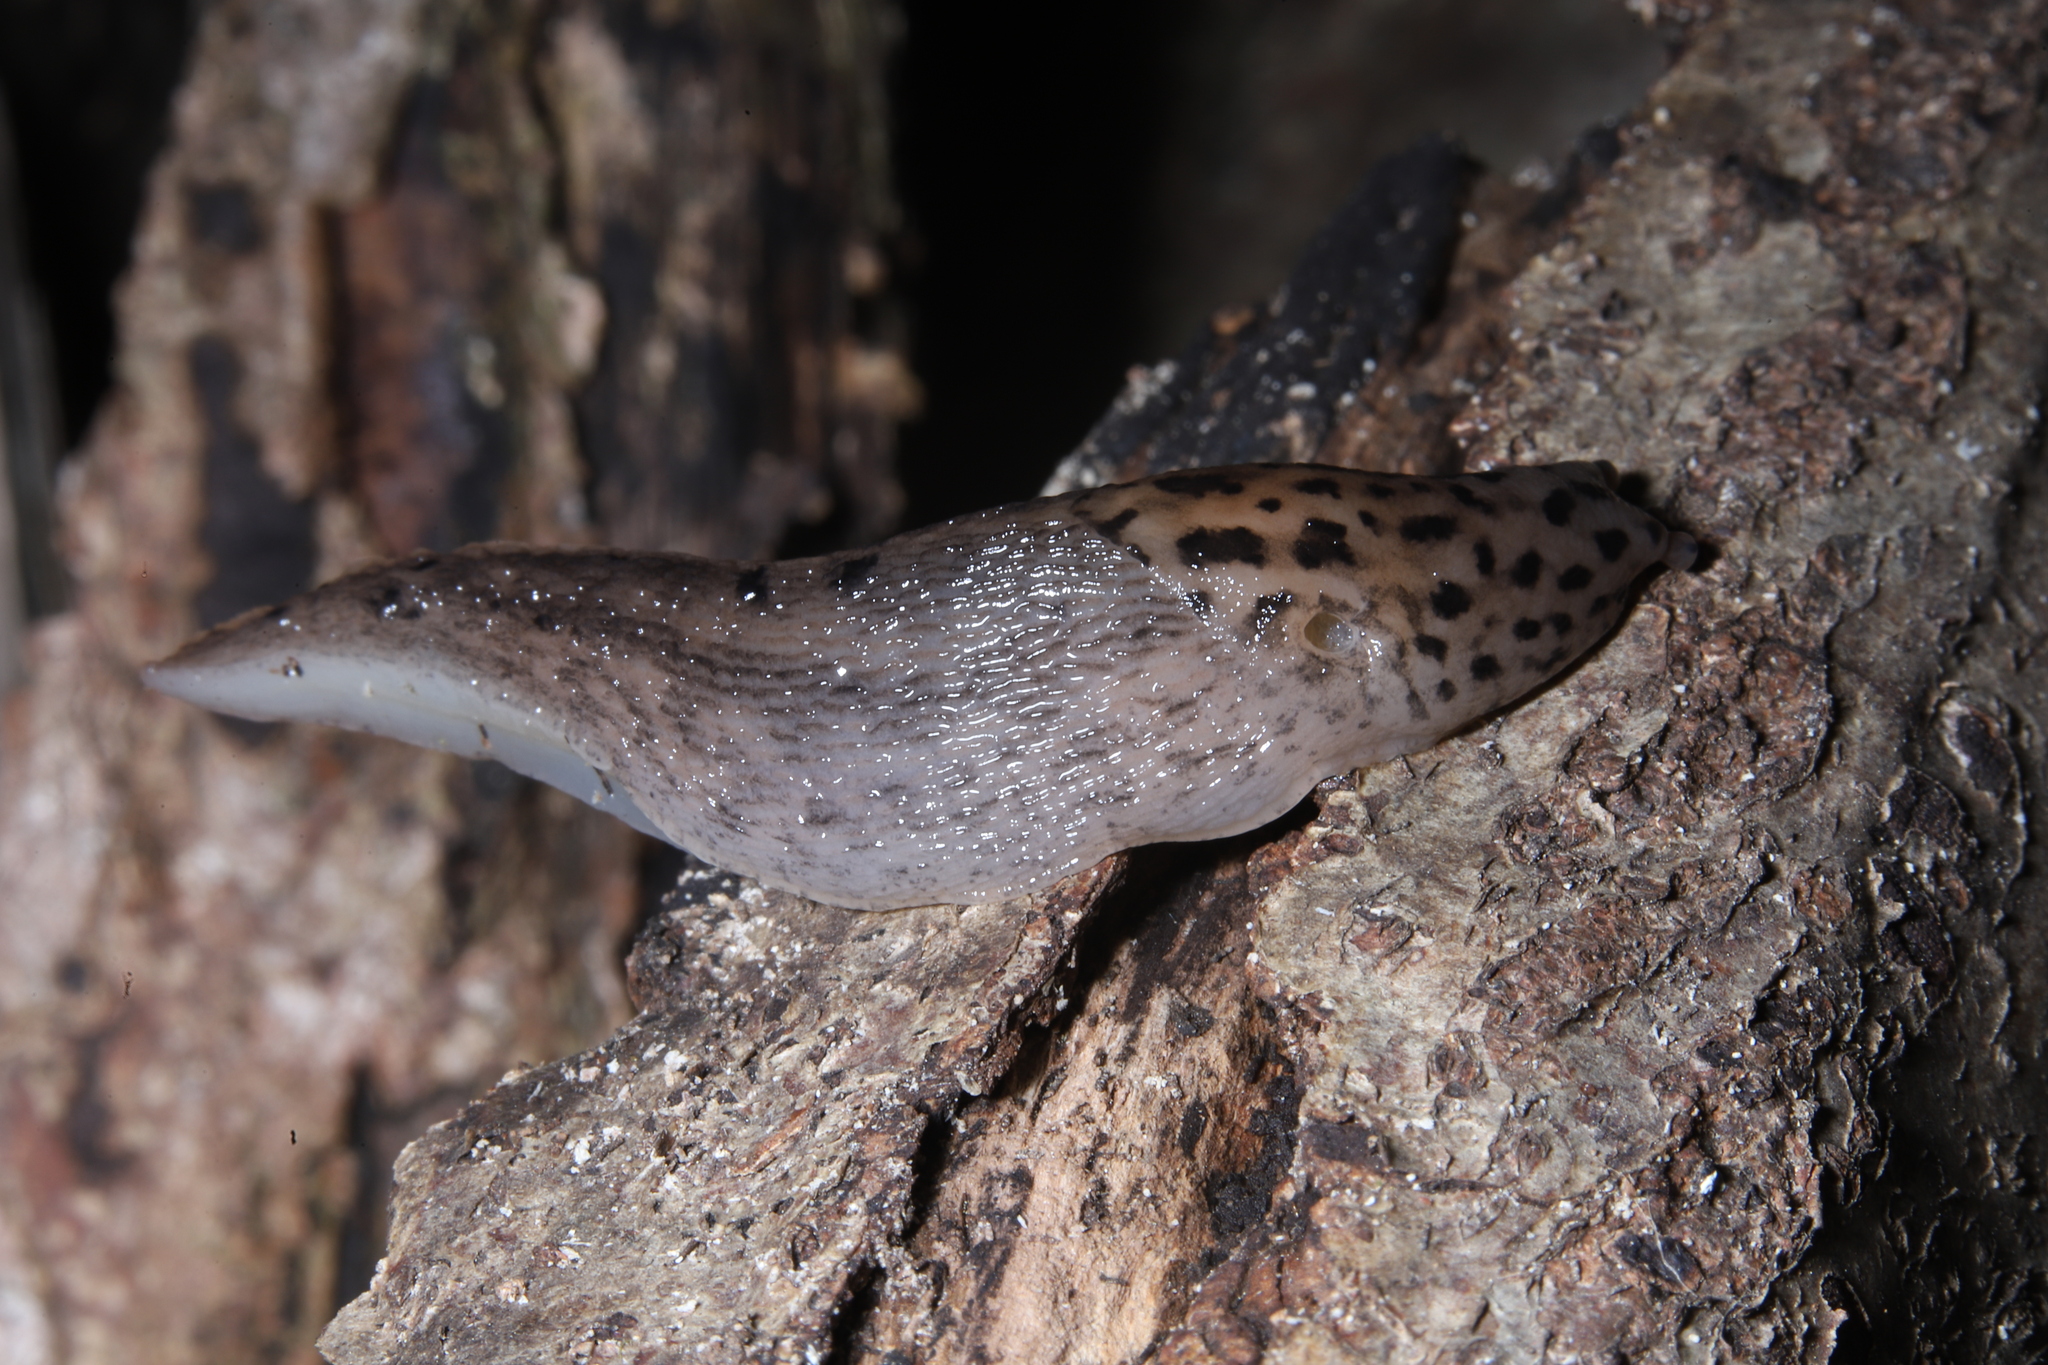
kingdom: Animalia
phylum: Mollusca
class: Gastropoda
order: Stylommatophora
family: Limacidae
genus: Limax
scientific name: Limax maximus
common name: Great grey slug
